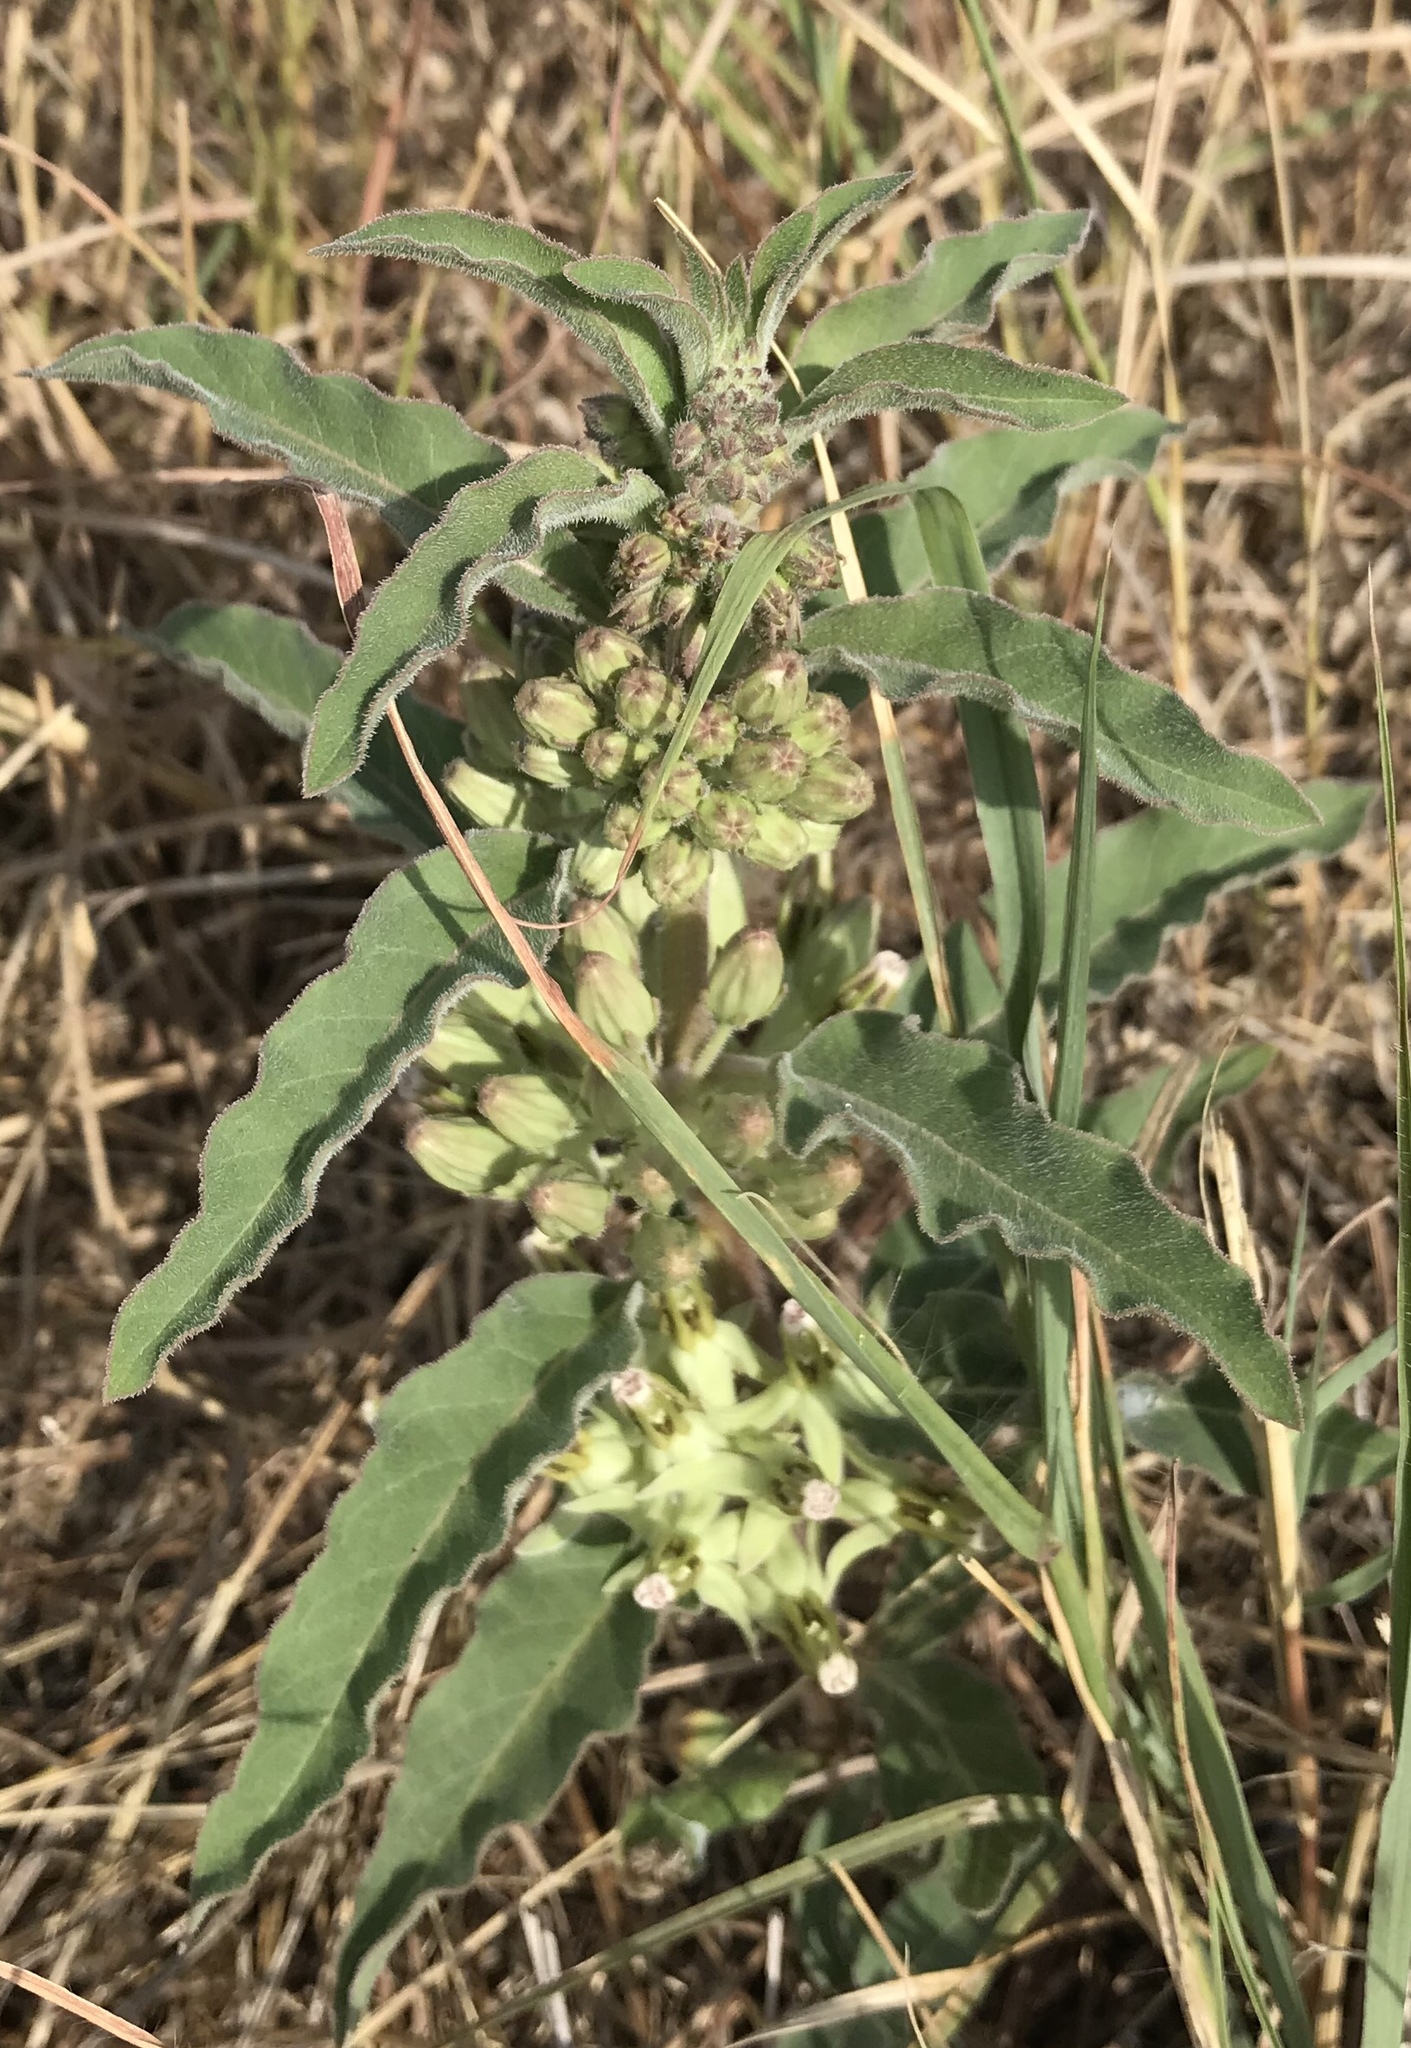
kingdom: Plantae
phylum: Tracheophyta
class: Magnoliopsida
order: Gentianales
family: Apocynaceae
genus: Asclepias
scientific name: Asclepias oenotheroides
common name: Zizotes milkweed
